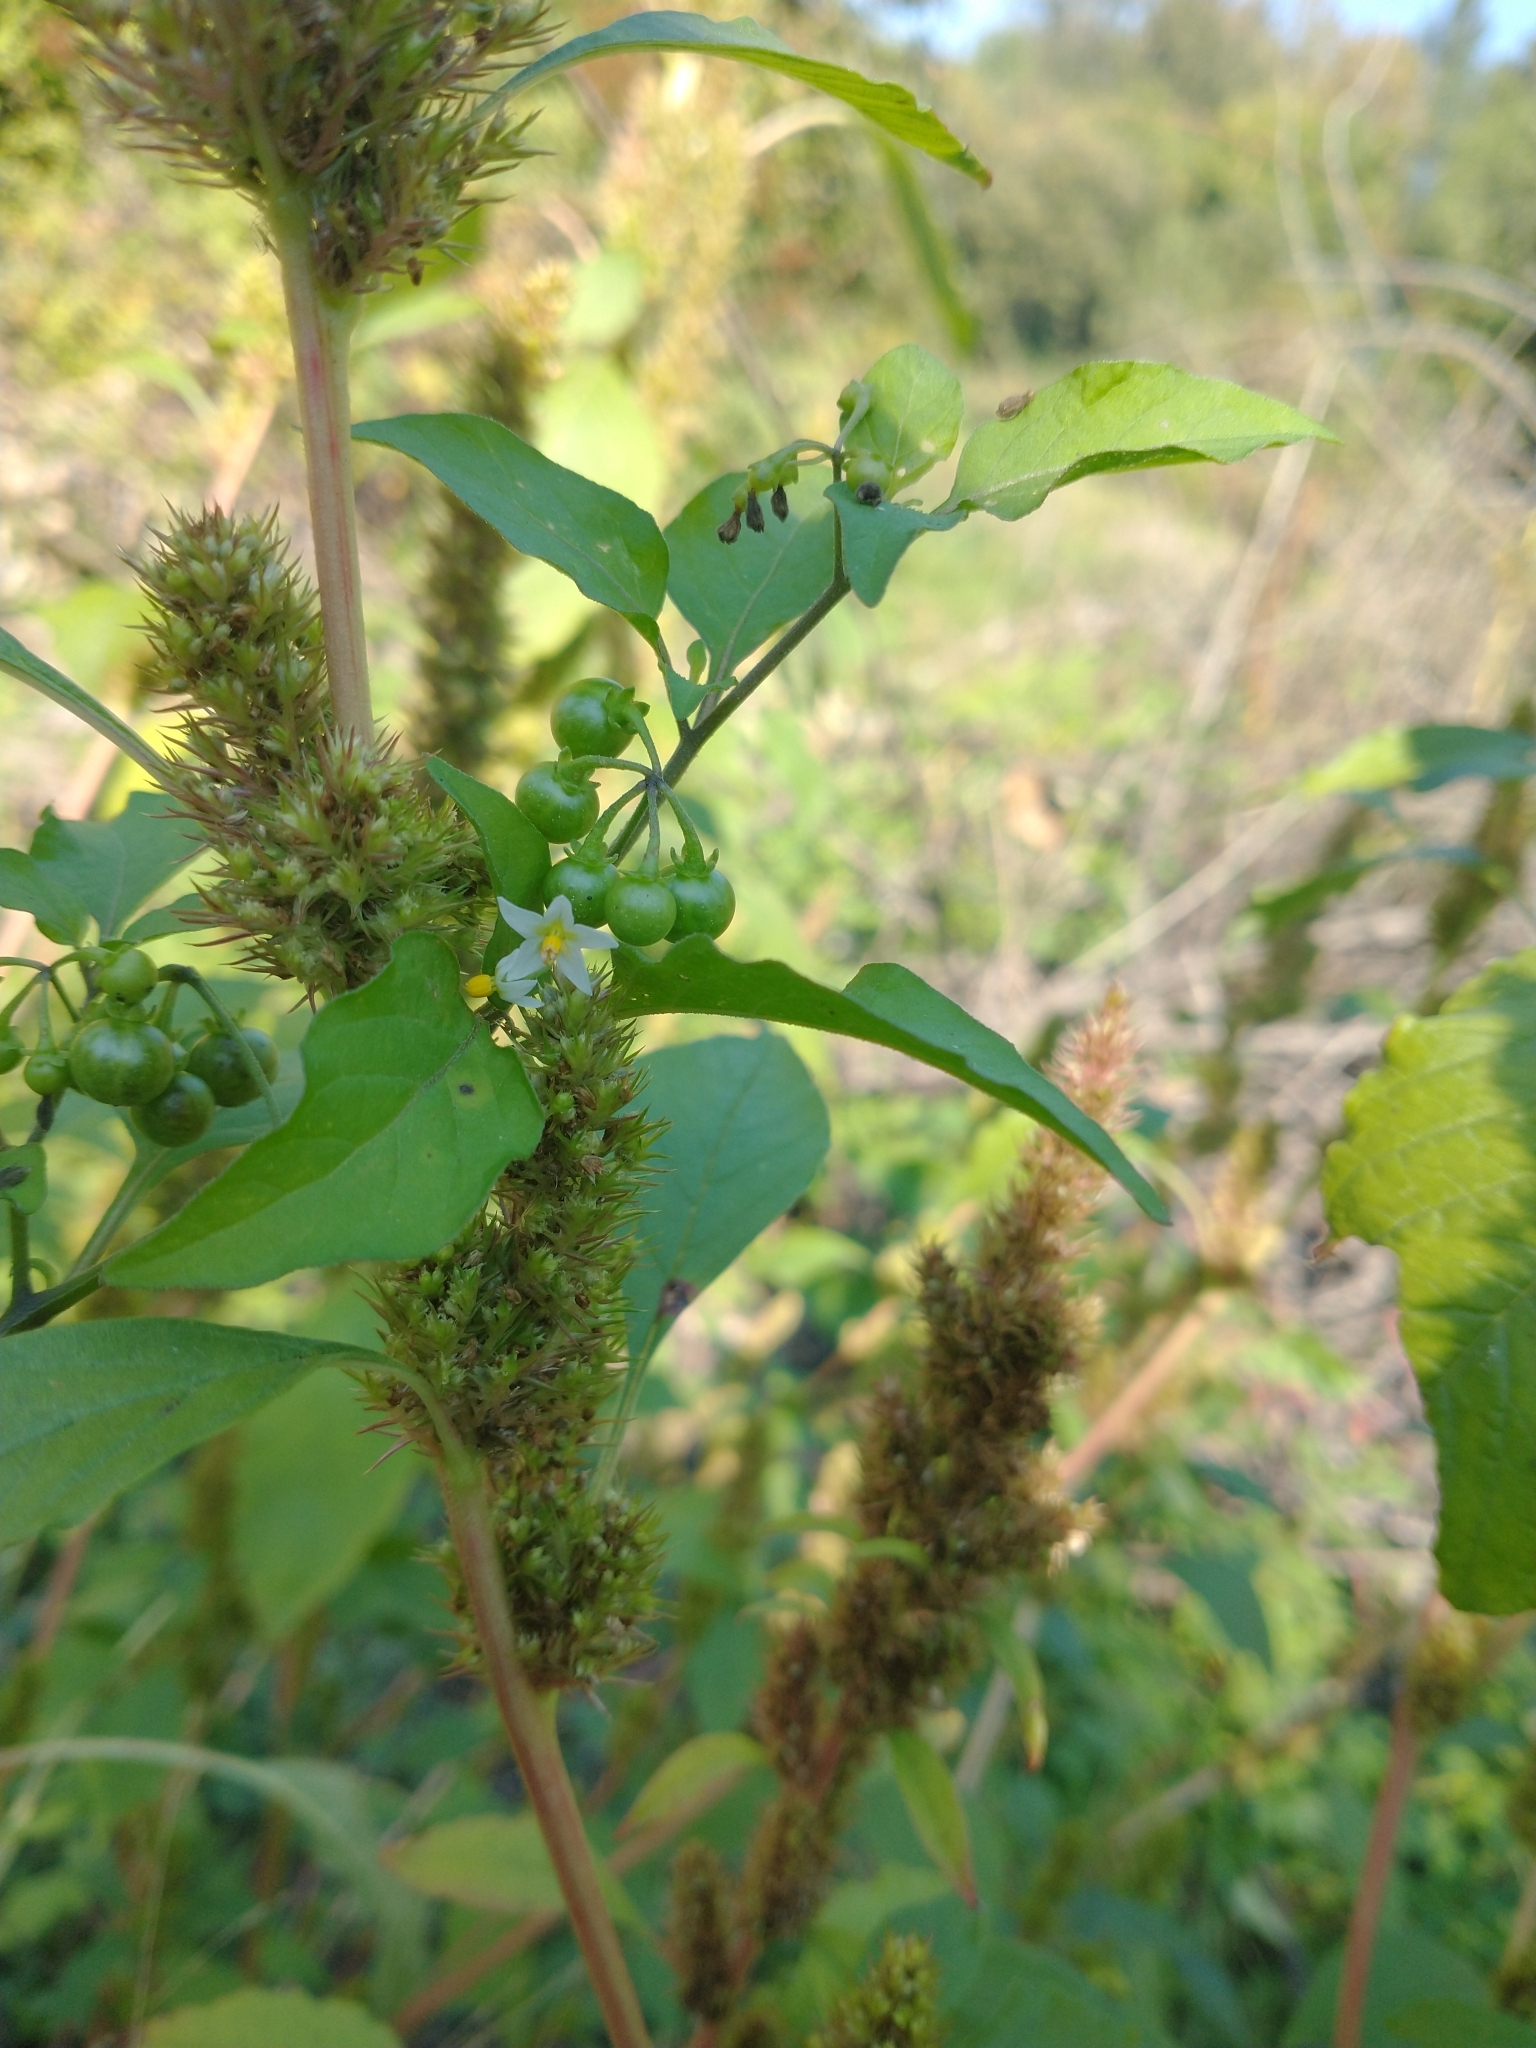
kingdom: Plantae
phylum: Tracheophyta
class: Magnoliopsida
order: Solanales
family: Solanaceae
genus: Solanum
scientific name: Solanum americanum
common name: American black nightshade
